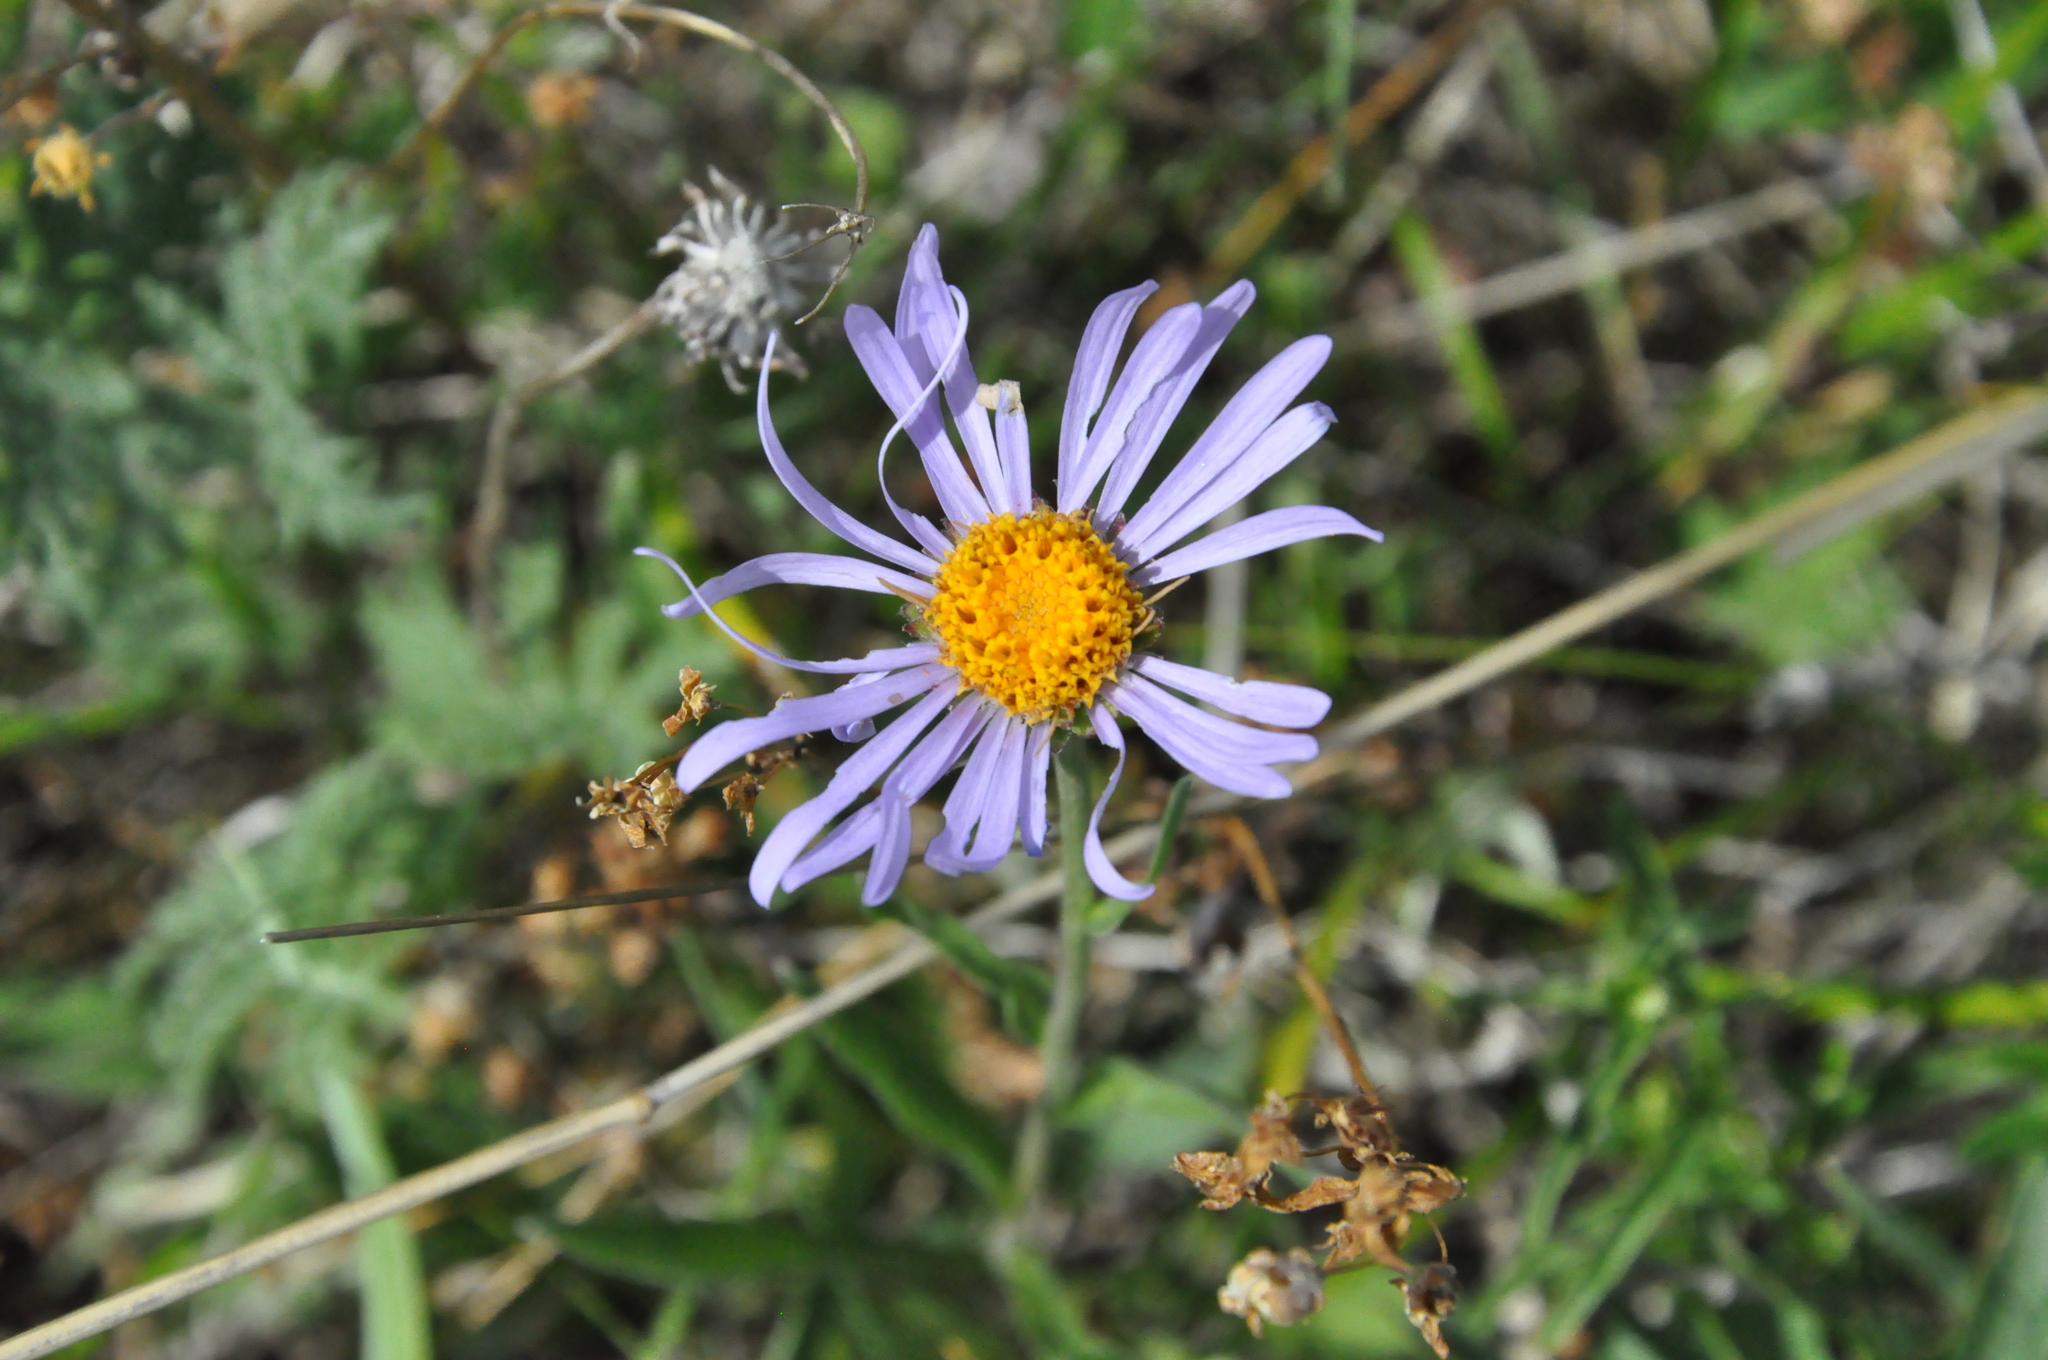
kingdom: Plantae
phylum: Tracheophyta
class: Magnoliopsida
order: Asterales
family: Asteraceae
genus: Aster
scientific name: Aster alpinus
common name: Alpine aster
